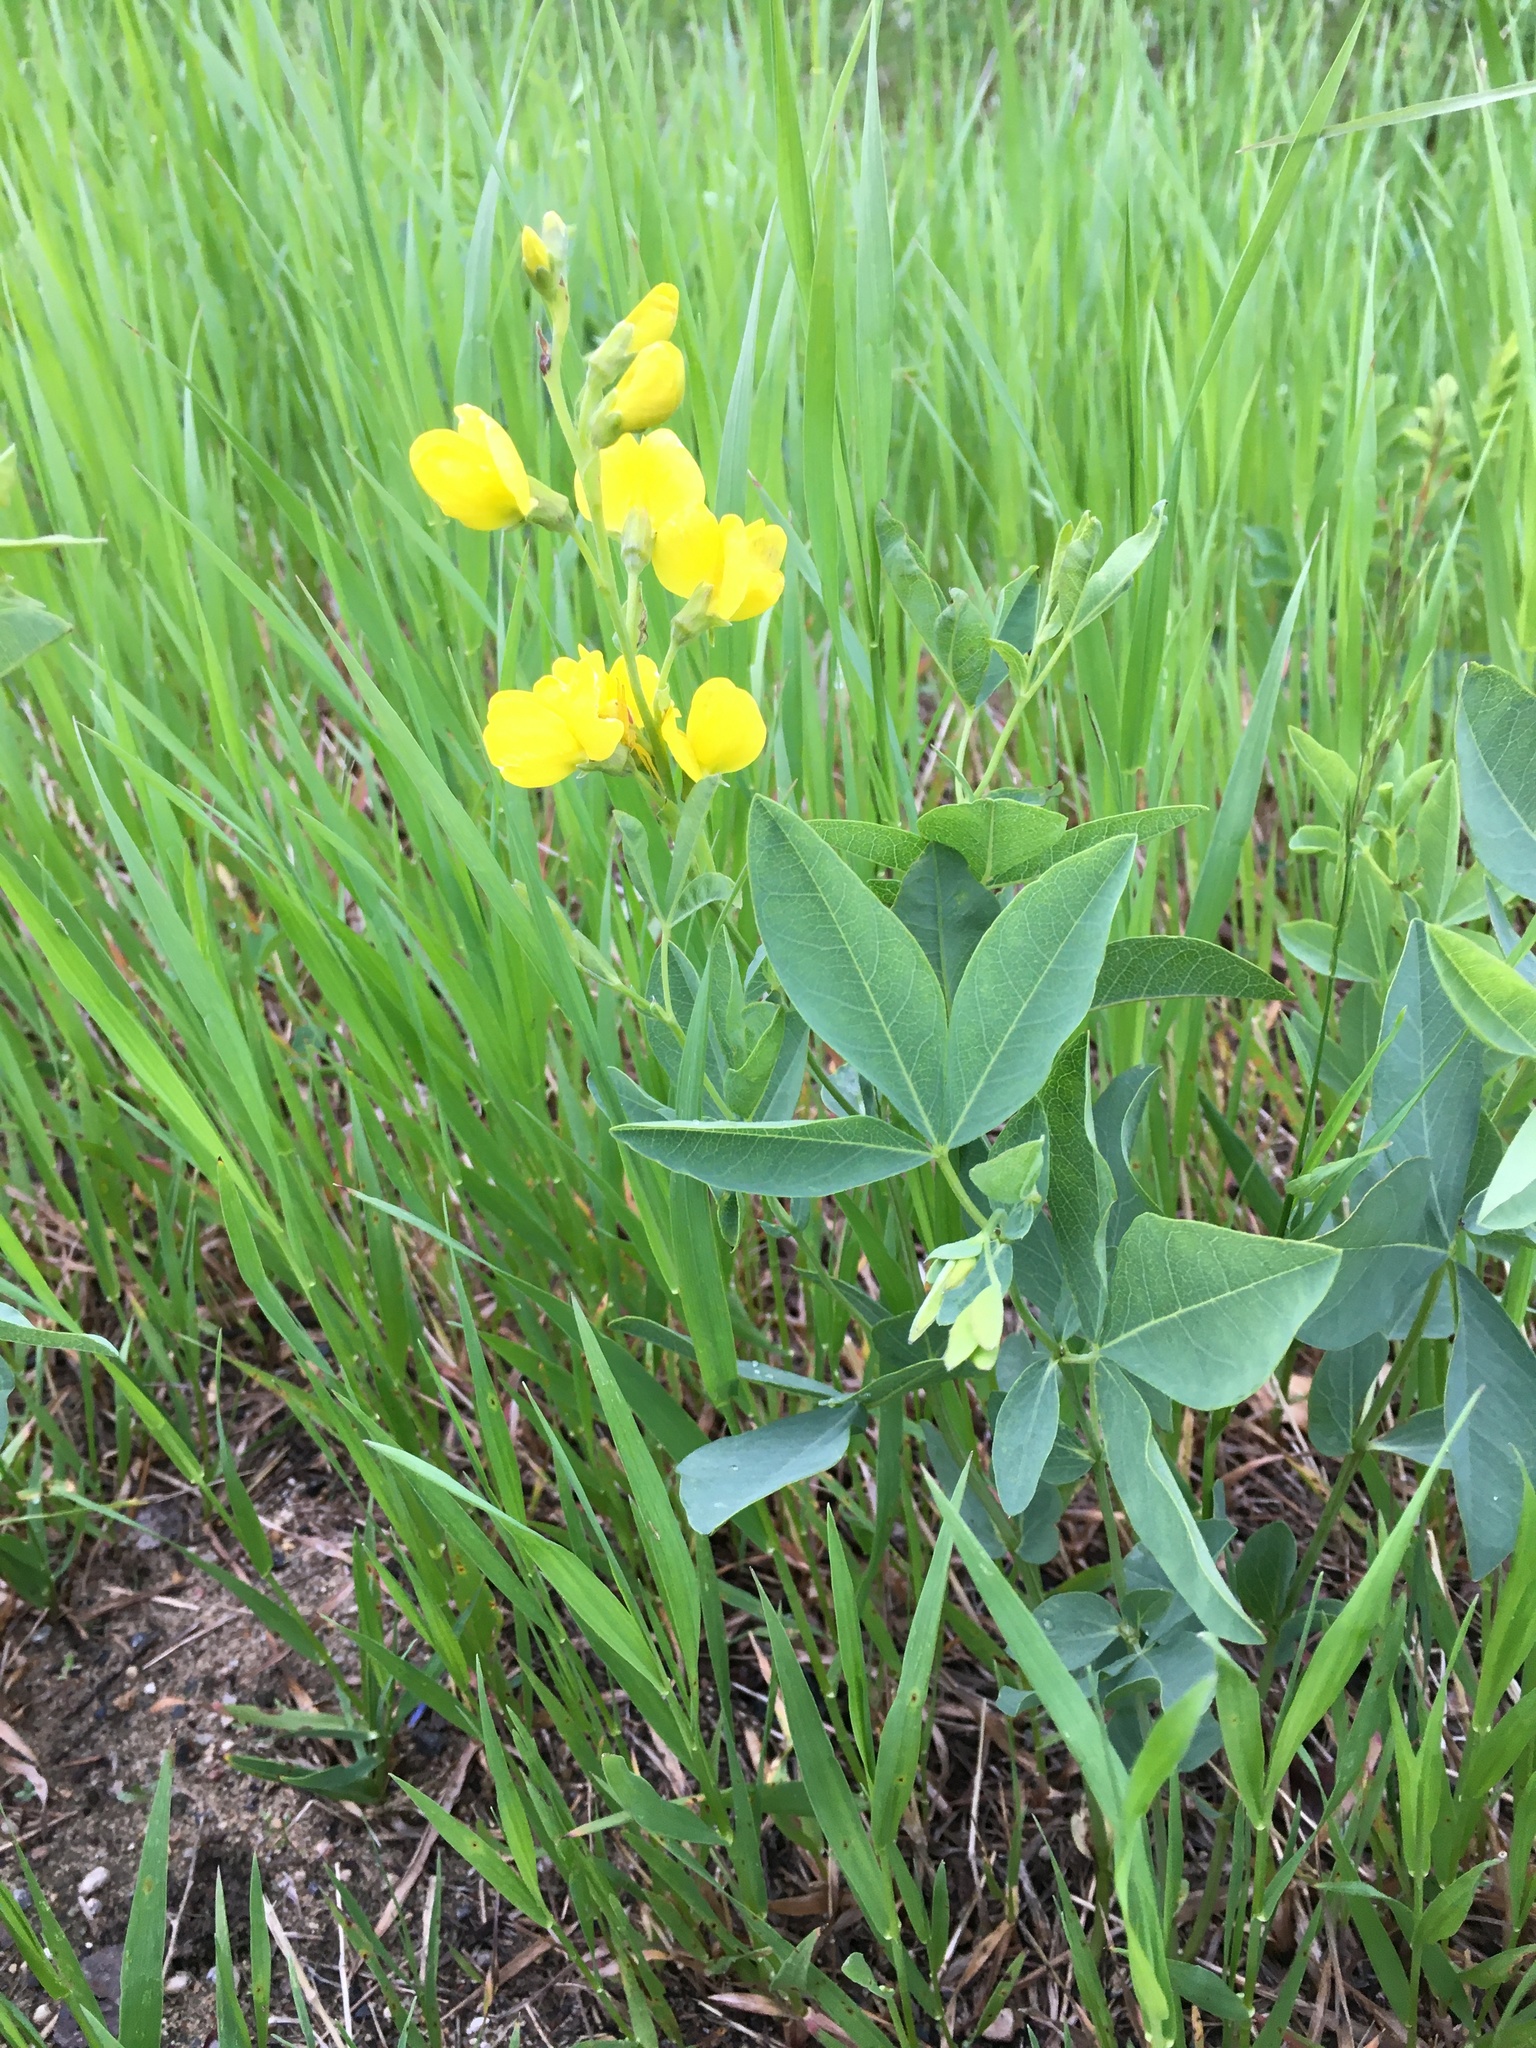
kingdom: Plantae
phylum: Tracheophyta
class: Magnoliopsida
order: Fabales
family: Fabaceae
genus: Thermopsis
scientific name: Thermopsis rhombifolia
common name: Circle-pod-pea
